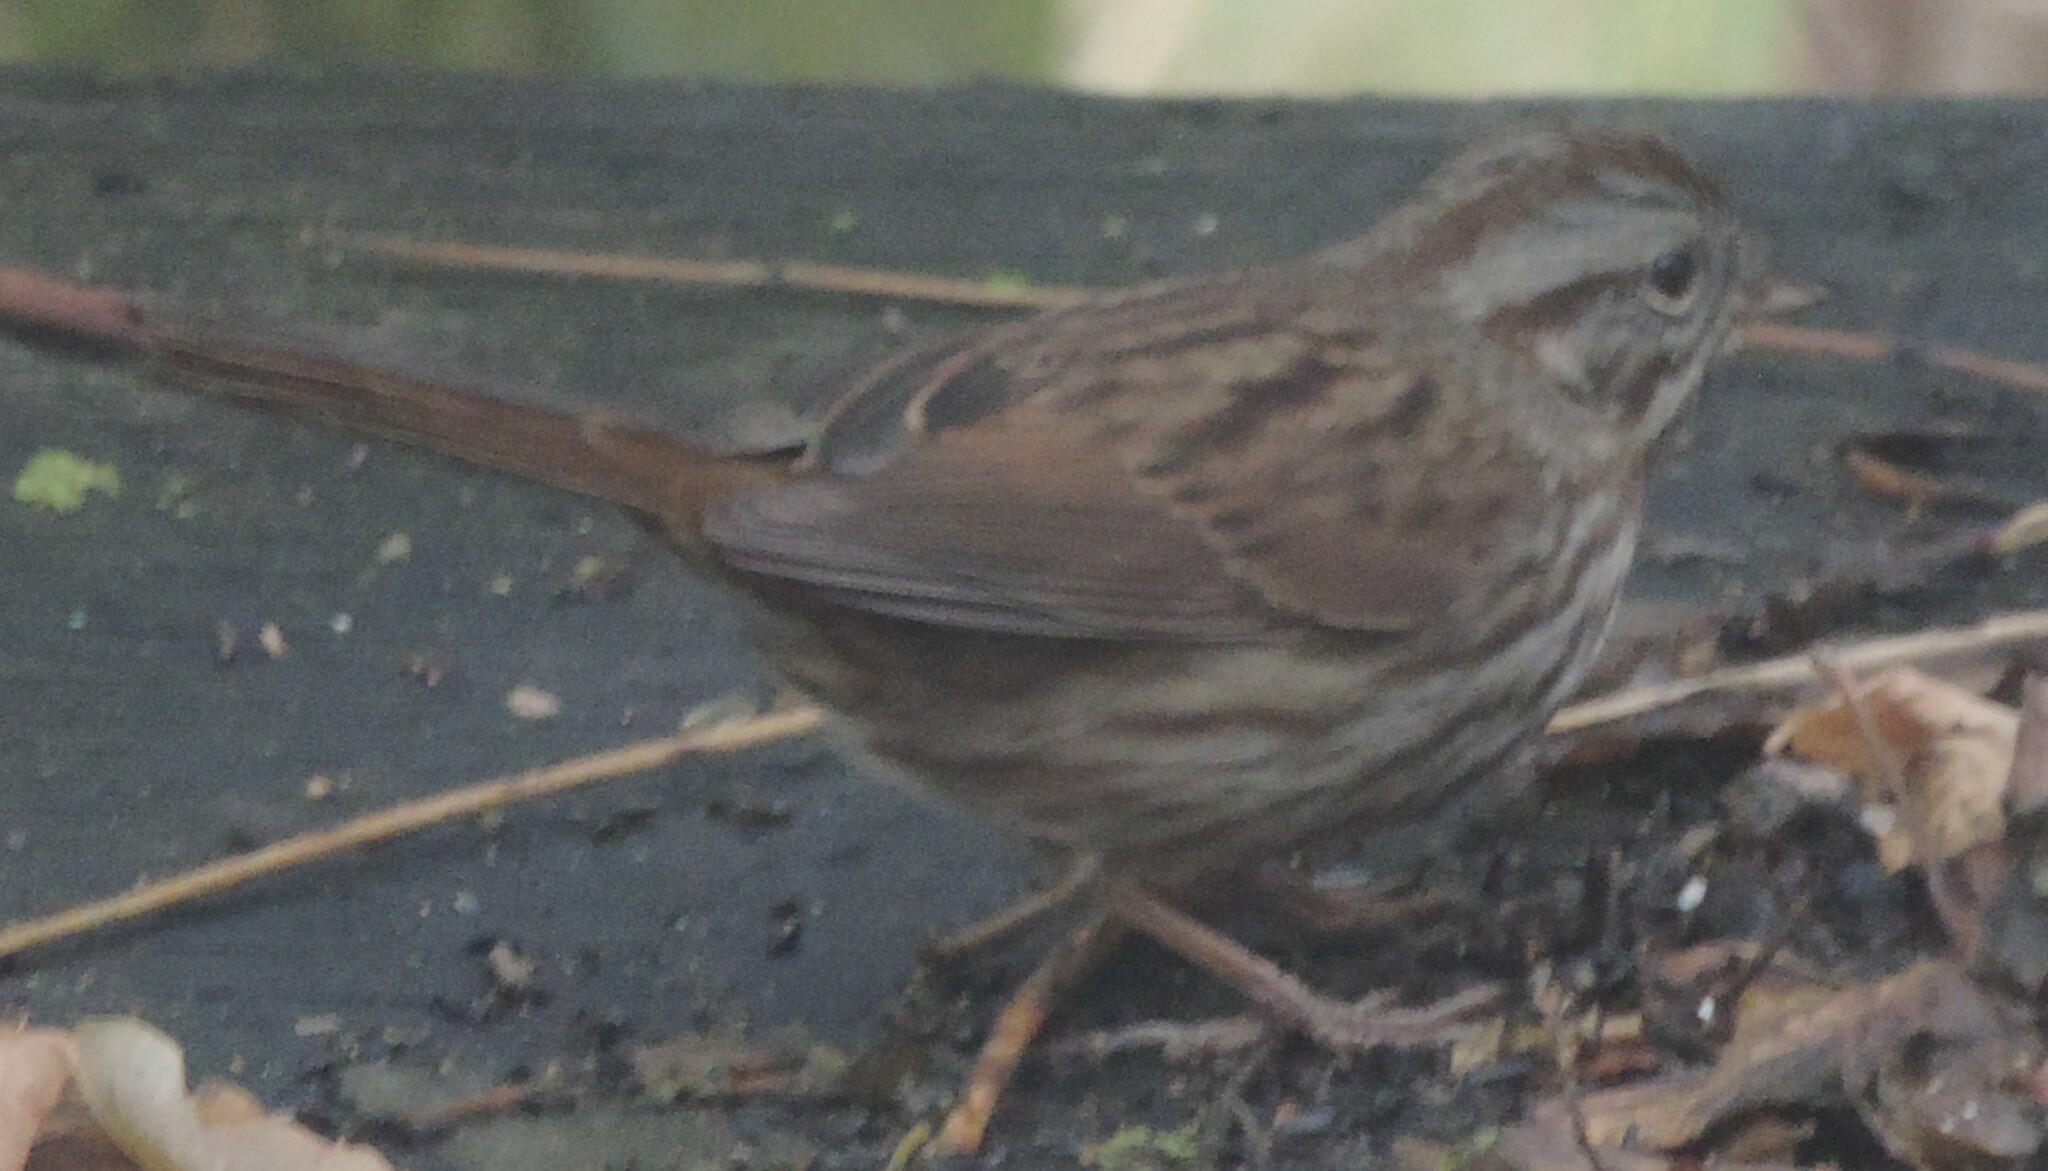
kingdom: Animalia
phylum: Chordata
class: Aves
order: Passeriformes
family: Passerellidae
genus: Melospiza
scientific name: Melospiza melodia
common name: Song sparrow
